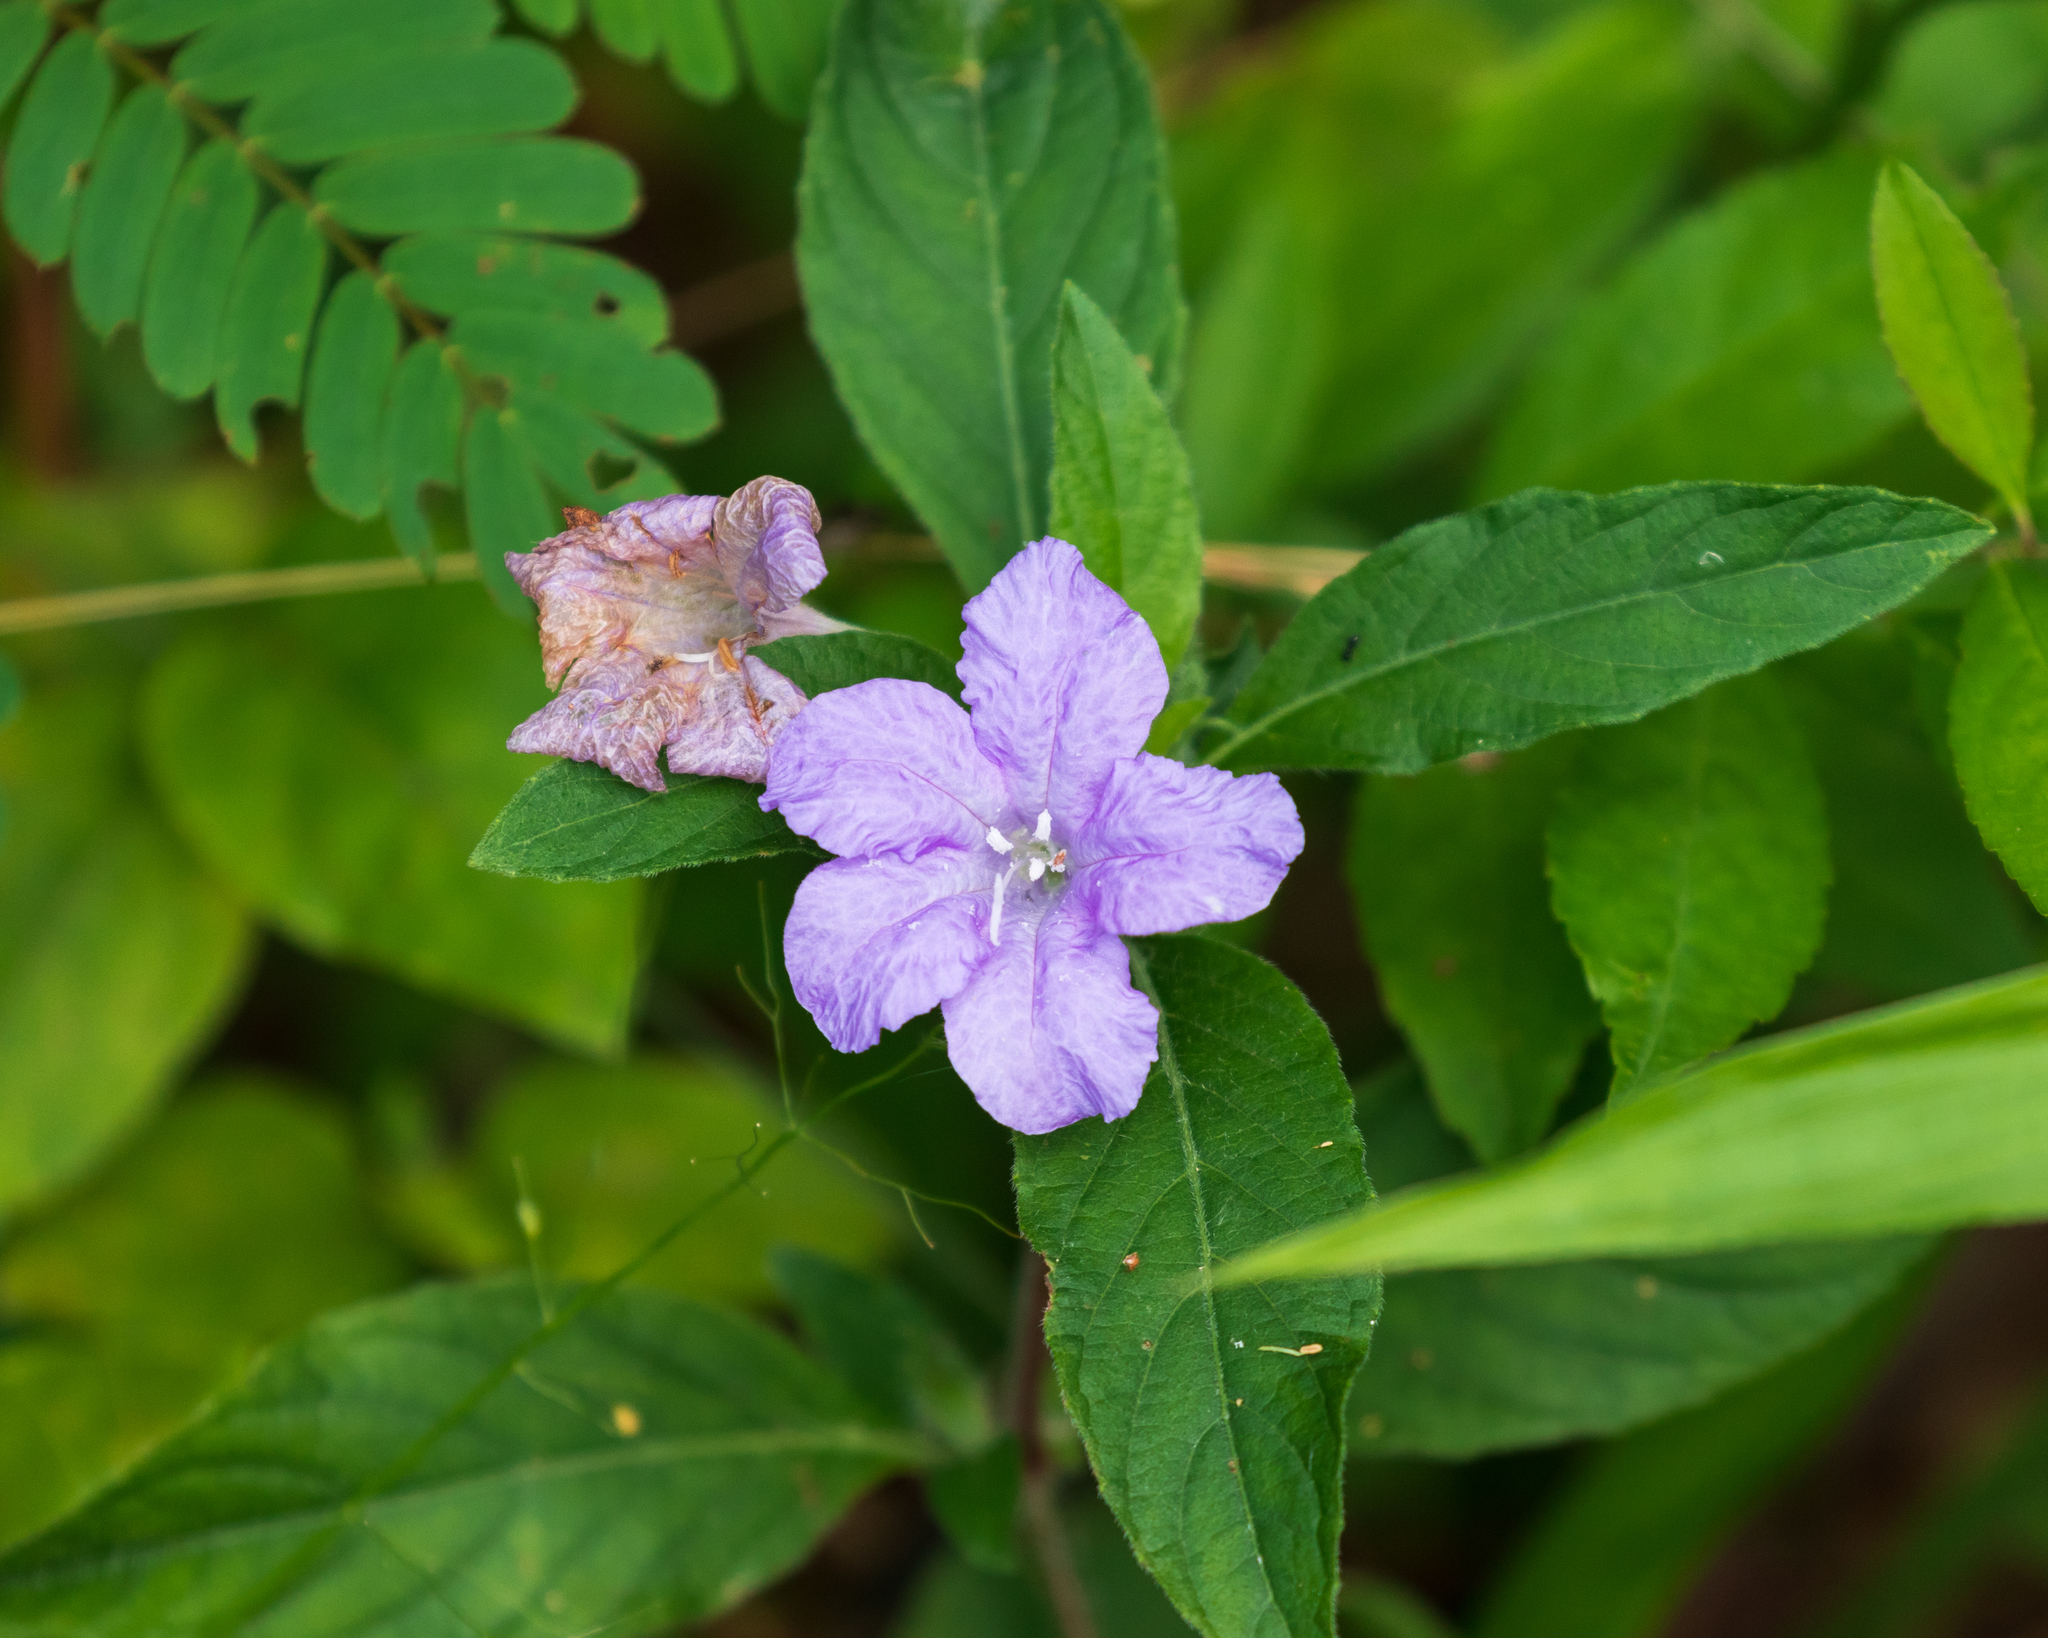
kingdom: Plantae
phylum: Tracheophyta
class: Magnoliopsida
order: Lamiales
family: Acanthaceae
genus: Ruellia
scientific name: Ruellia caroliniensis
